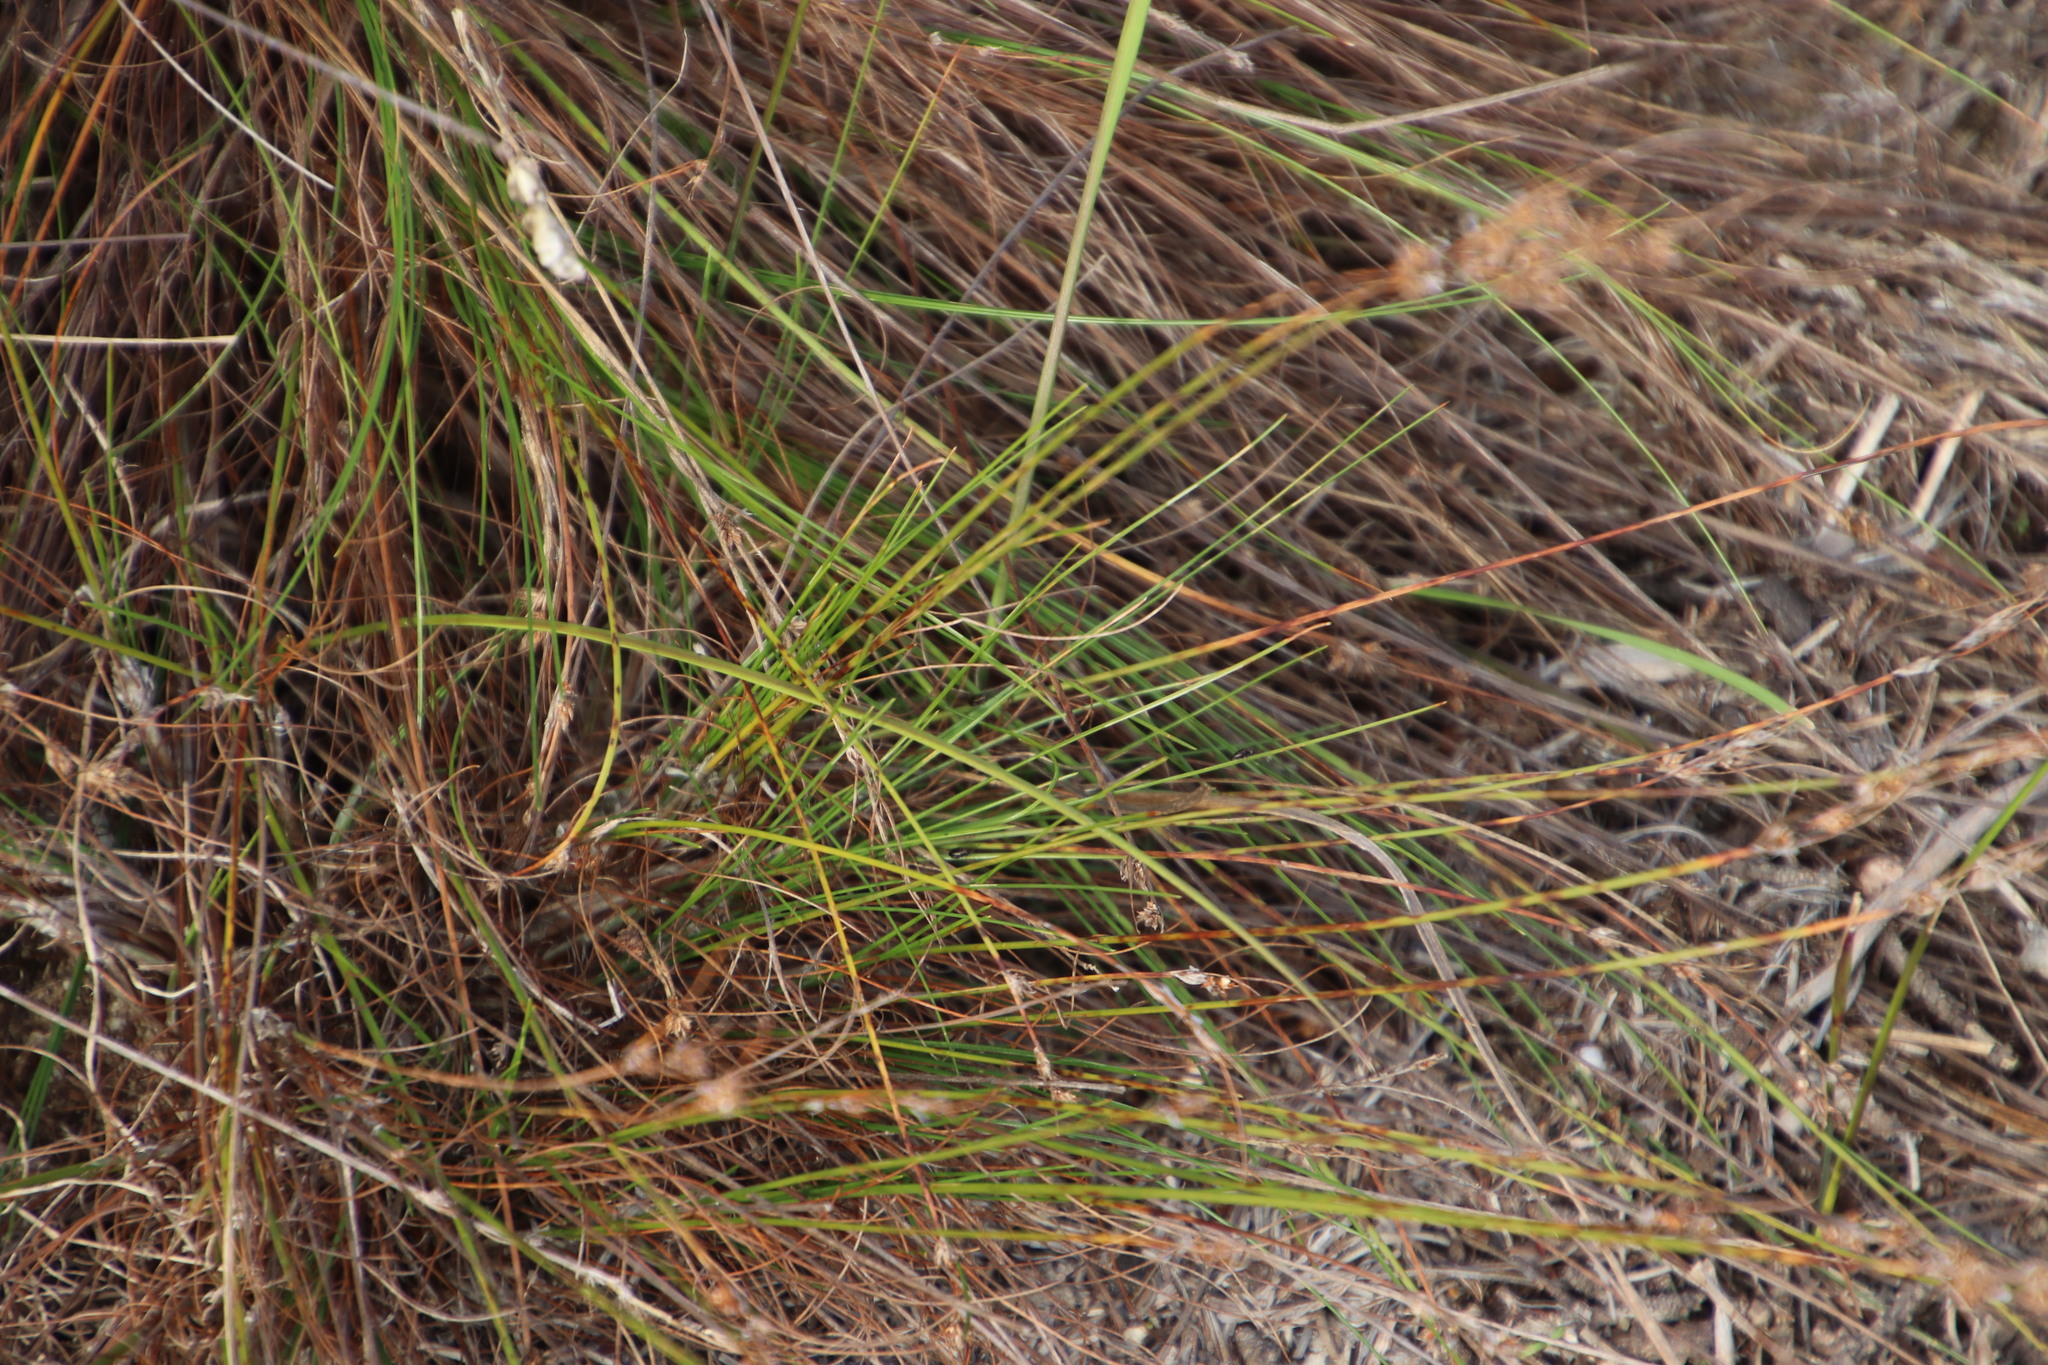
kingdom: Plantae
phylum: Tracheophyta
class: Liliopsida
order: Poales
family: Cyperaceae
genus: Ficinia
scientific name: Ficinia bulbosa
